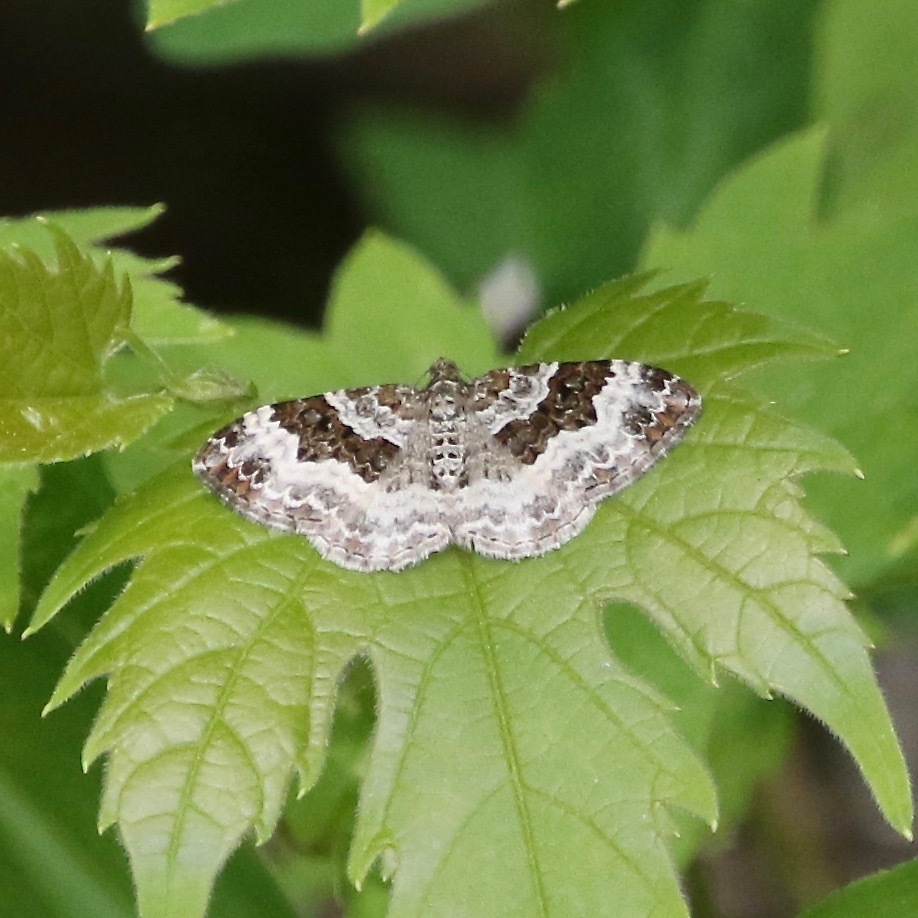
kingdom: Animalia
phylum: Arthropoda
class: Insecta
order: Lepidoptera
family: Geometridae
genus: Epirrhoe
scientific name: Epirrhoe alternata
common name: Common carpet
